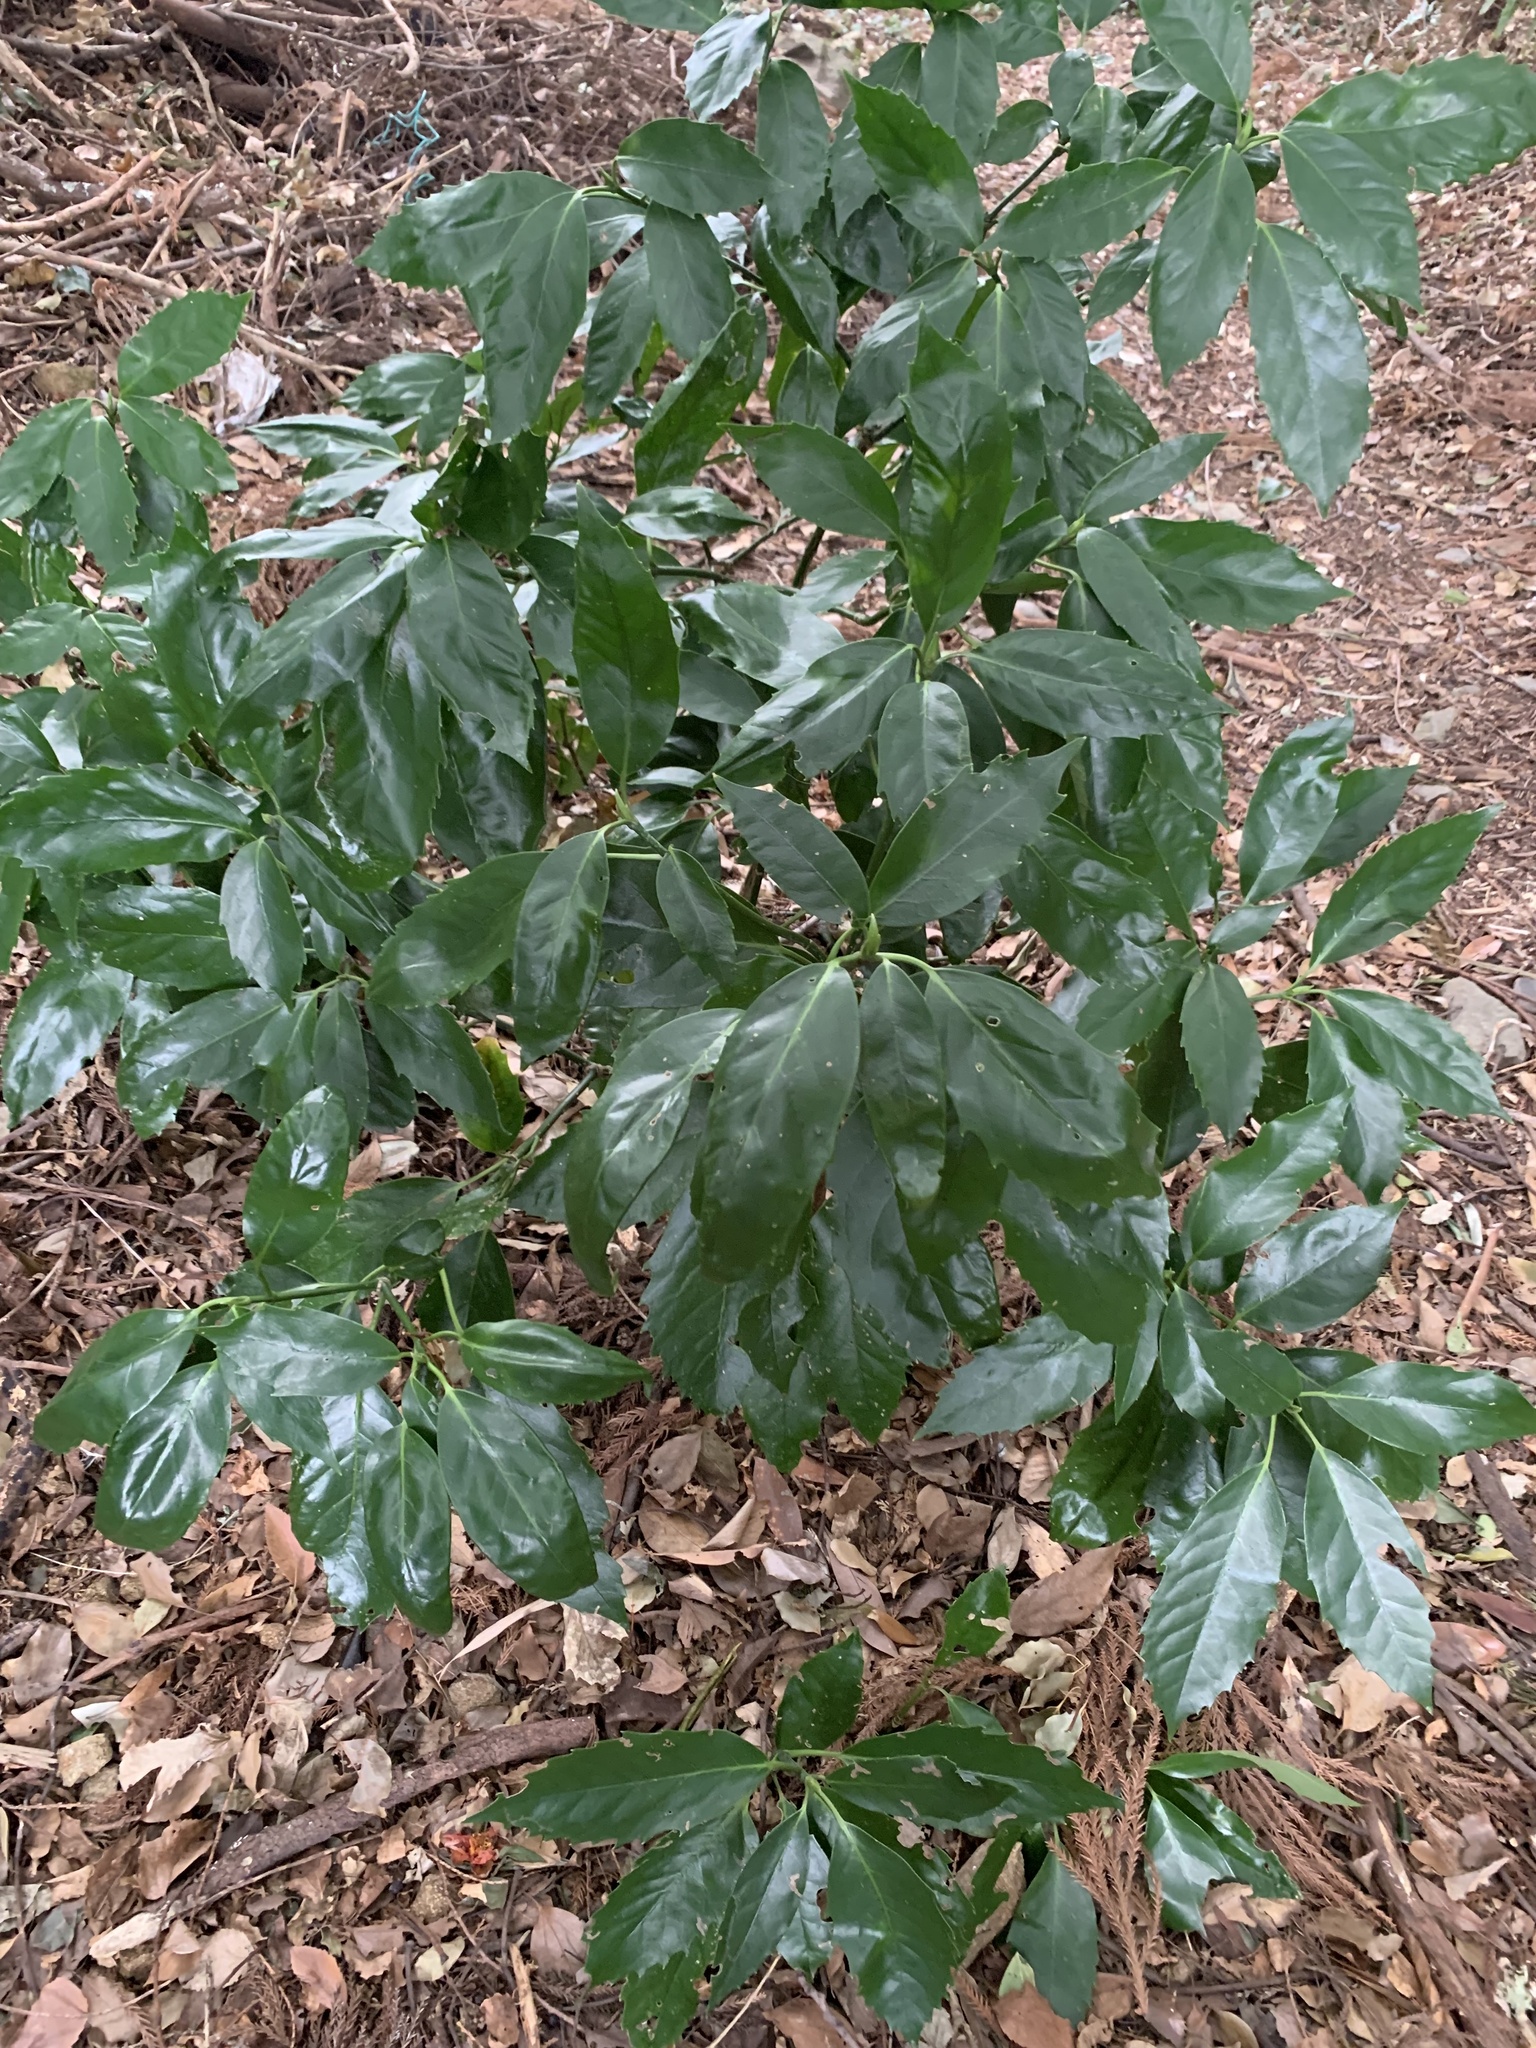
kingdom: Plantae
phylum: Tracheophyta
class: Magnoliopsida
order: Garryales
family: Garryaceae
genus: Aucuba
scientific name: Aucuba japonica
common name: Spotted-laurel
